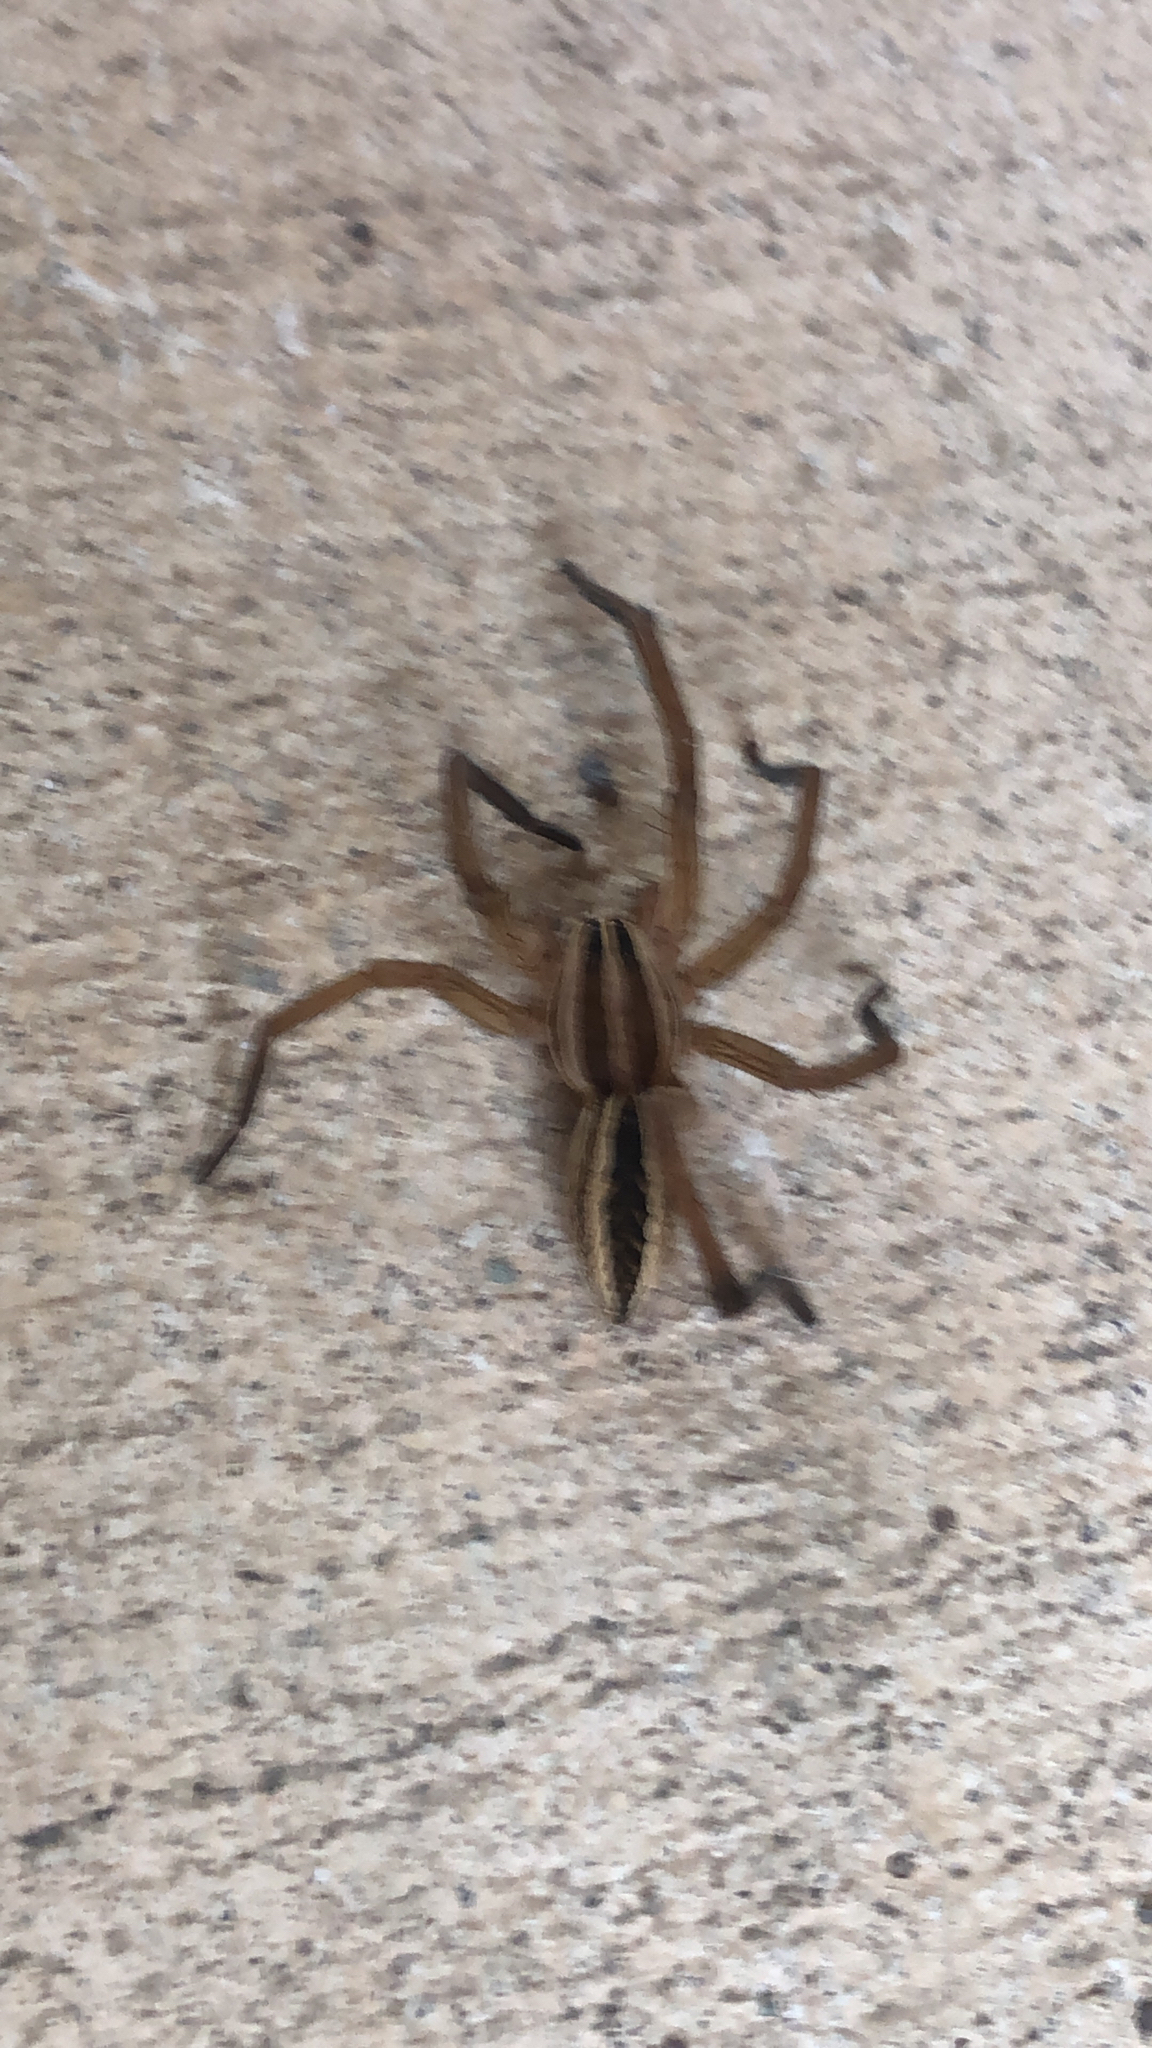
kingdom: Animalia
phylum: Arthropoda
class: Arachnida
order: Araneae
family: Lycosidae
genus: Rabidosa
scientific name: Rabidosa rabida
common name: Rabid wolf spider
